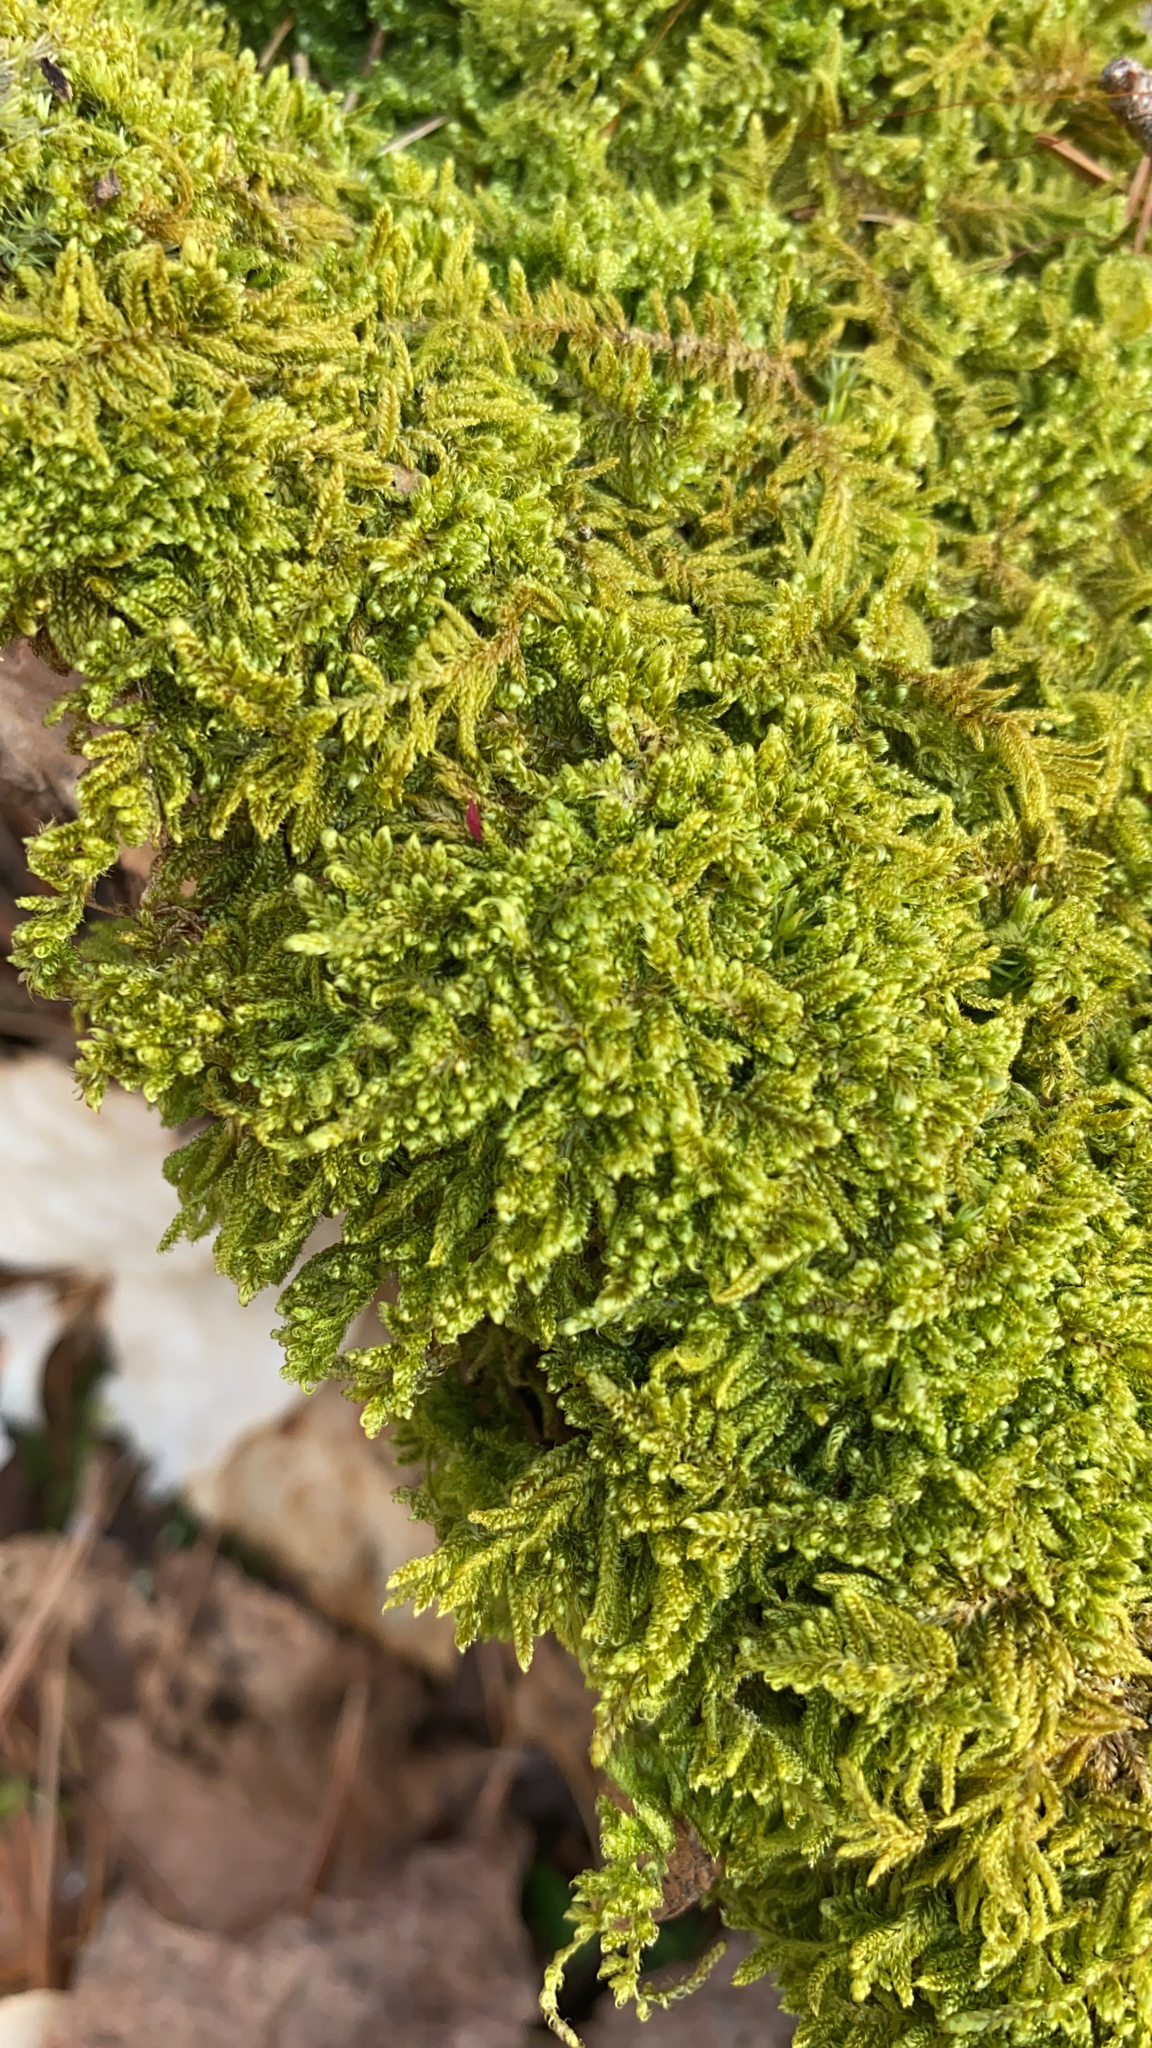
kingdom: Plantae
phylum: Bryophyta
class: Bryopsida
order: Hypnales
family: Callicladiaceae
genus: Callicladium
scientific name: Callicladium imponens
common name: Brocade moss
